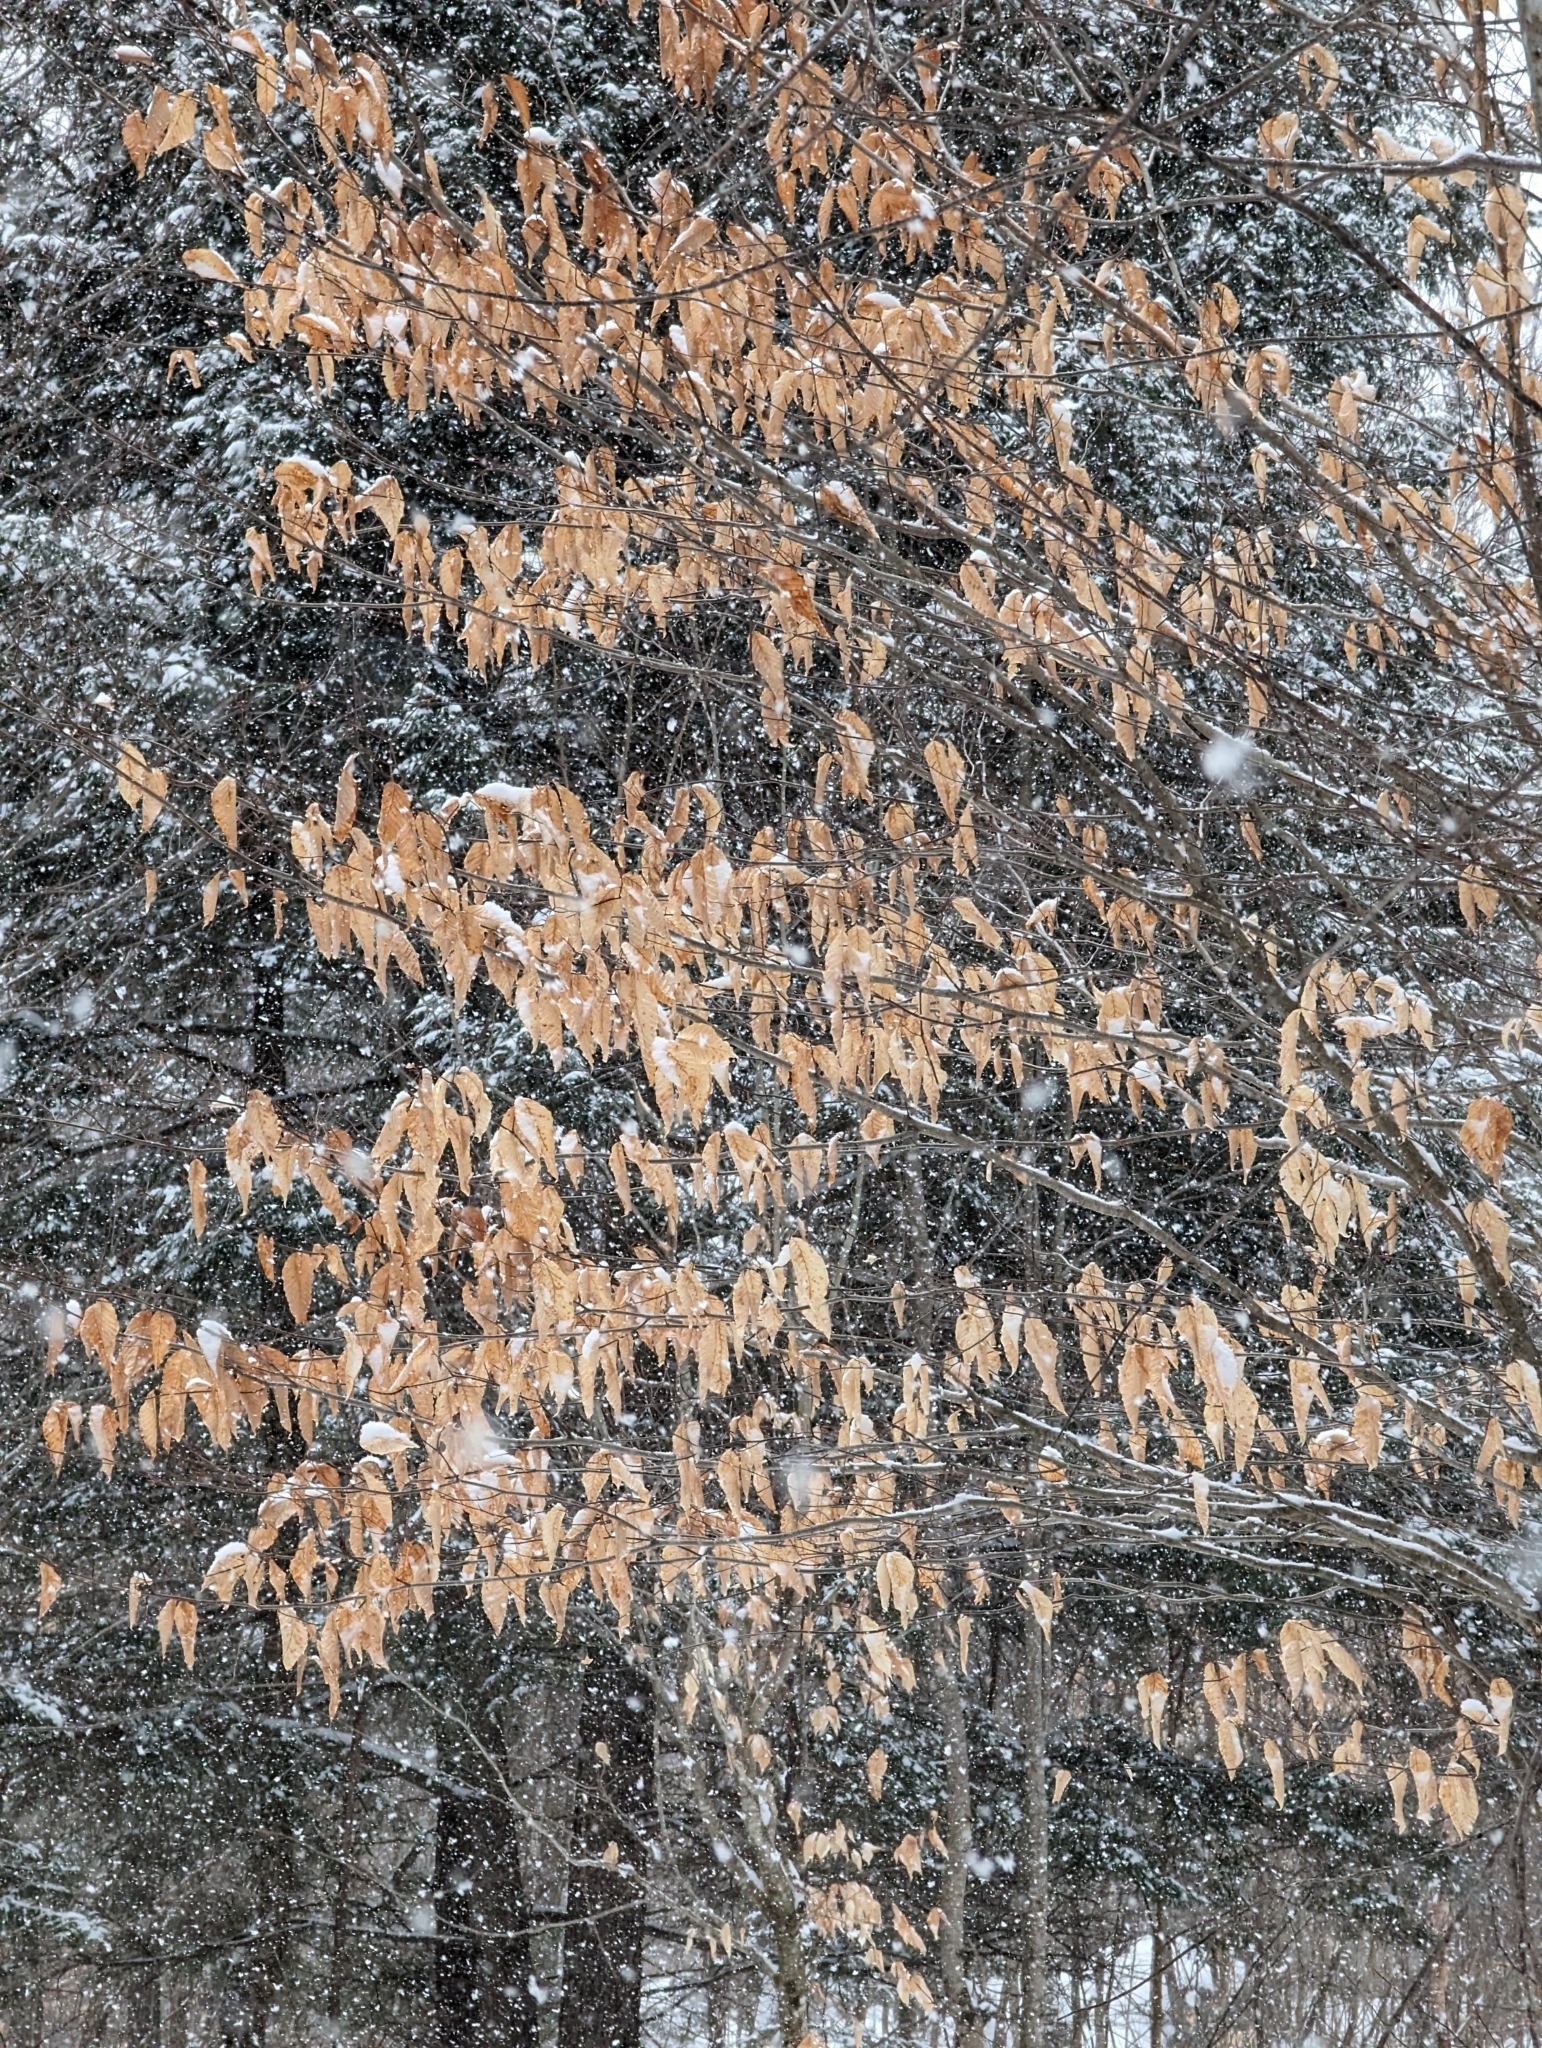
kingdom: Plantae
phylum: Tracheophyta
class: Magnoliopsida
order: Fagales
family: Fagaceae
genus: Fagus
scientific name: Fagus grandifolia
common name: American beech
